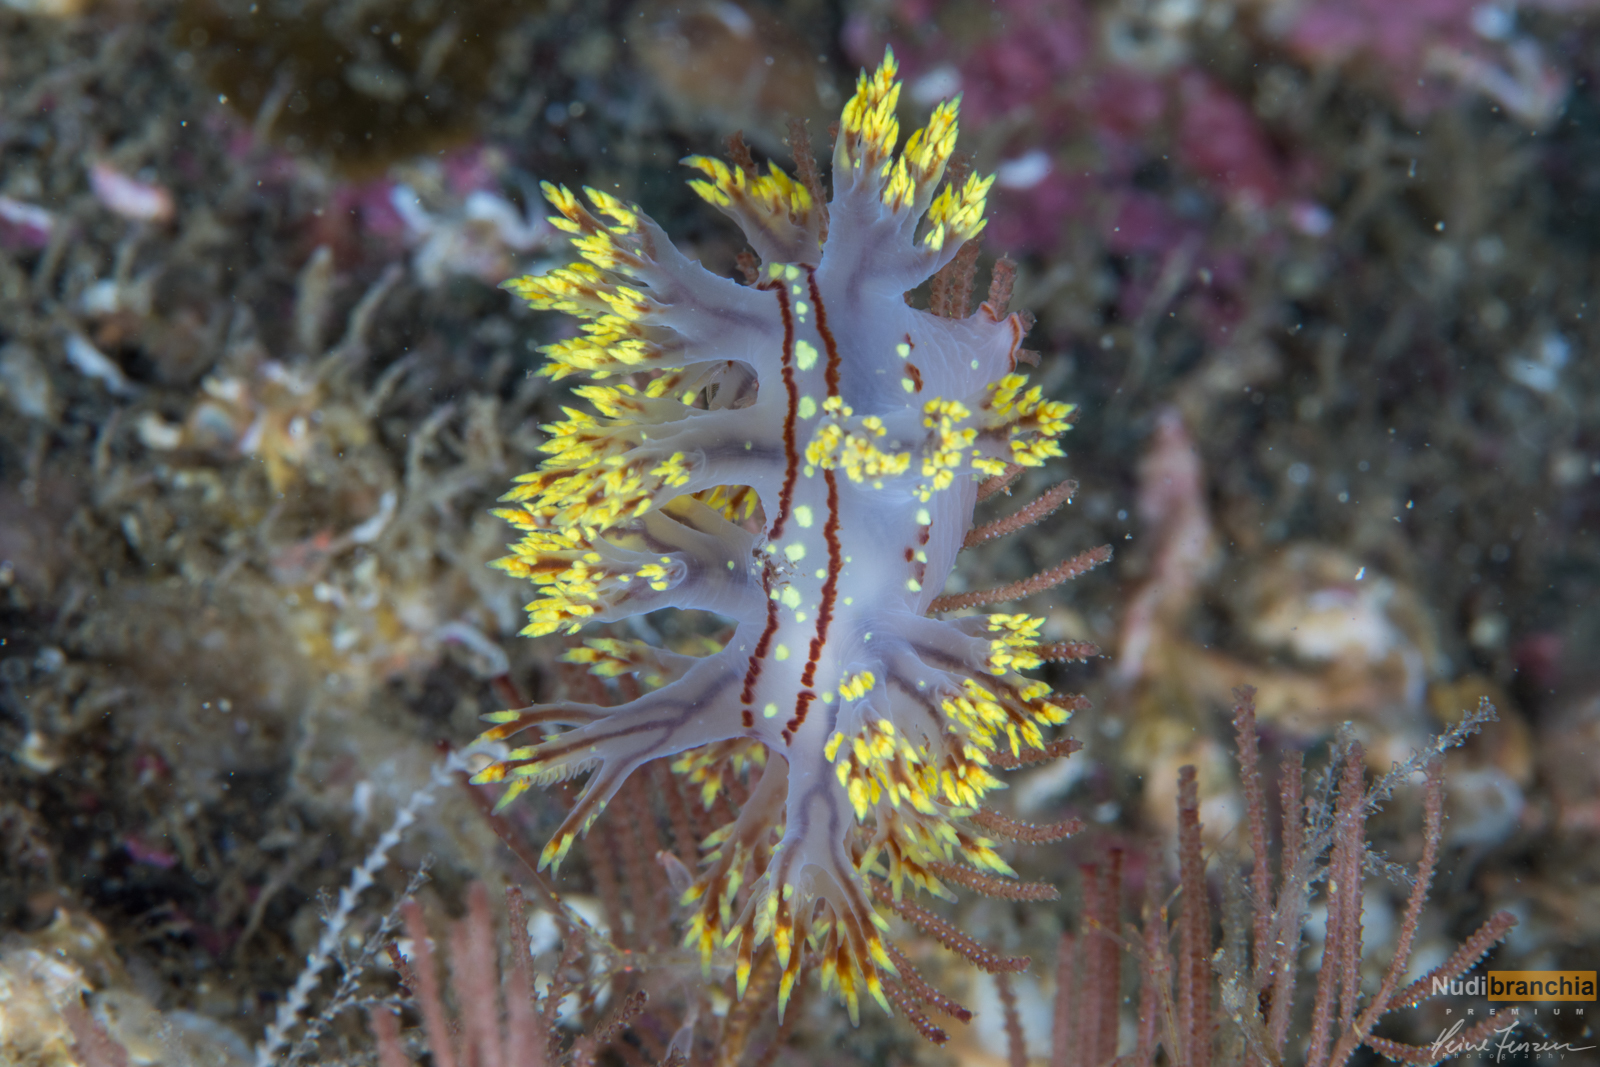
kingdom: Animalia
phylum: Mollusca
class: Gastropoda
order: Nudibranchia
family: Dendronotidae
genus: Dendronotus
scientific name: Dendronotus yrjargul
